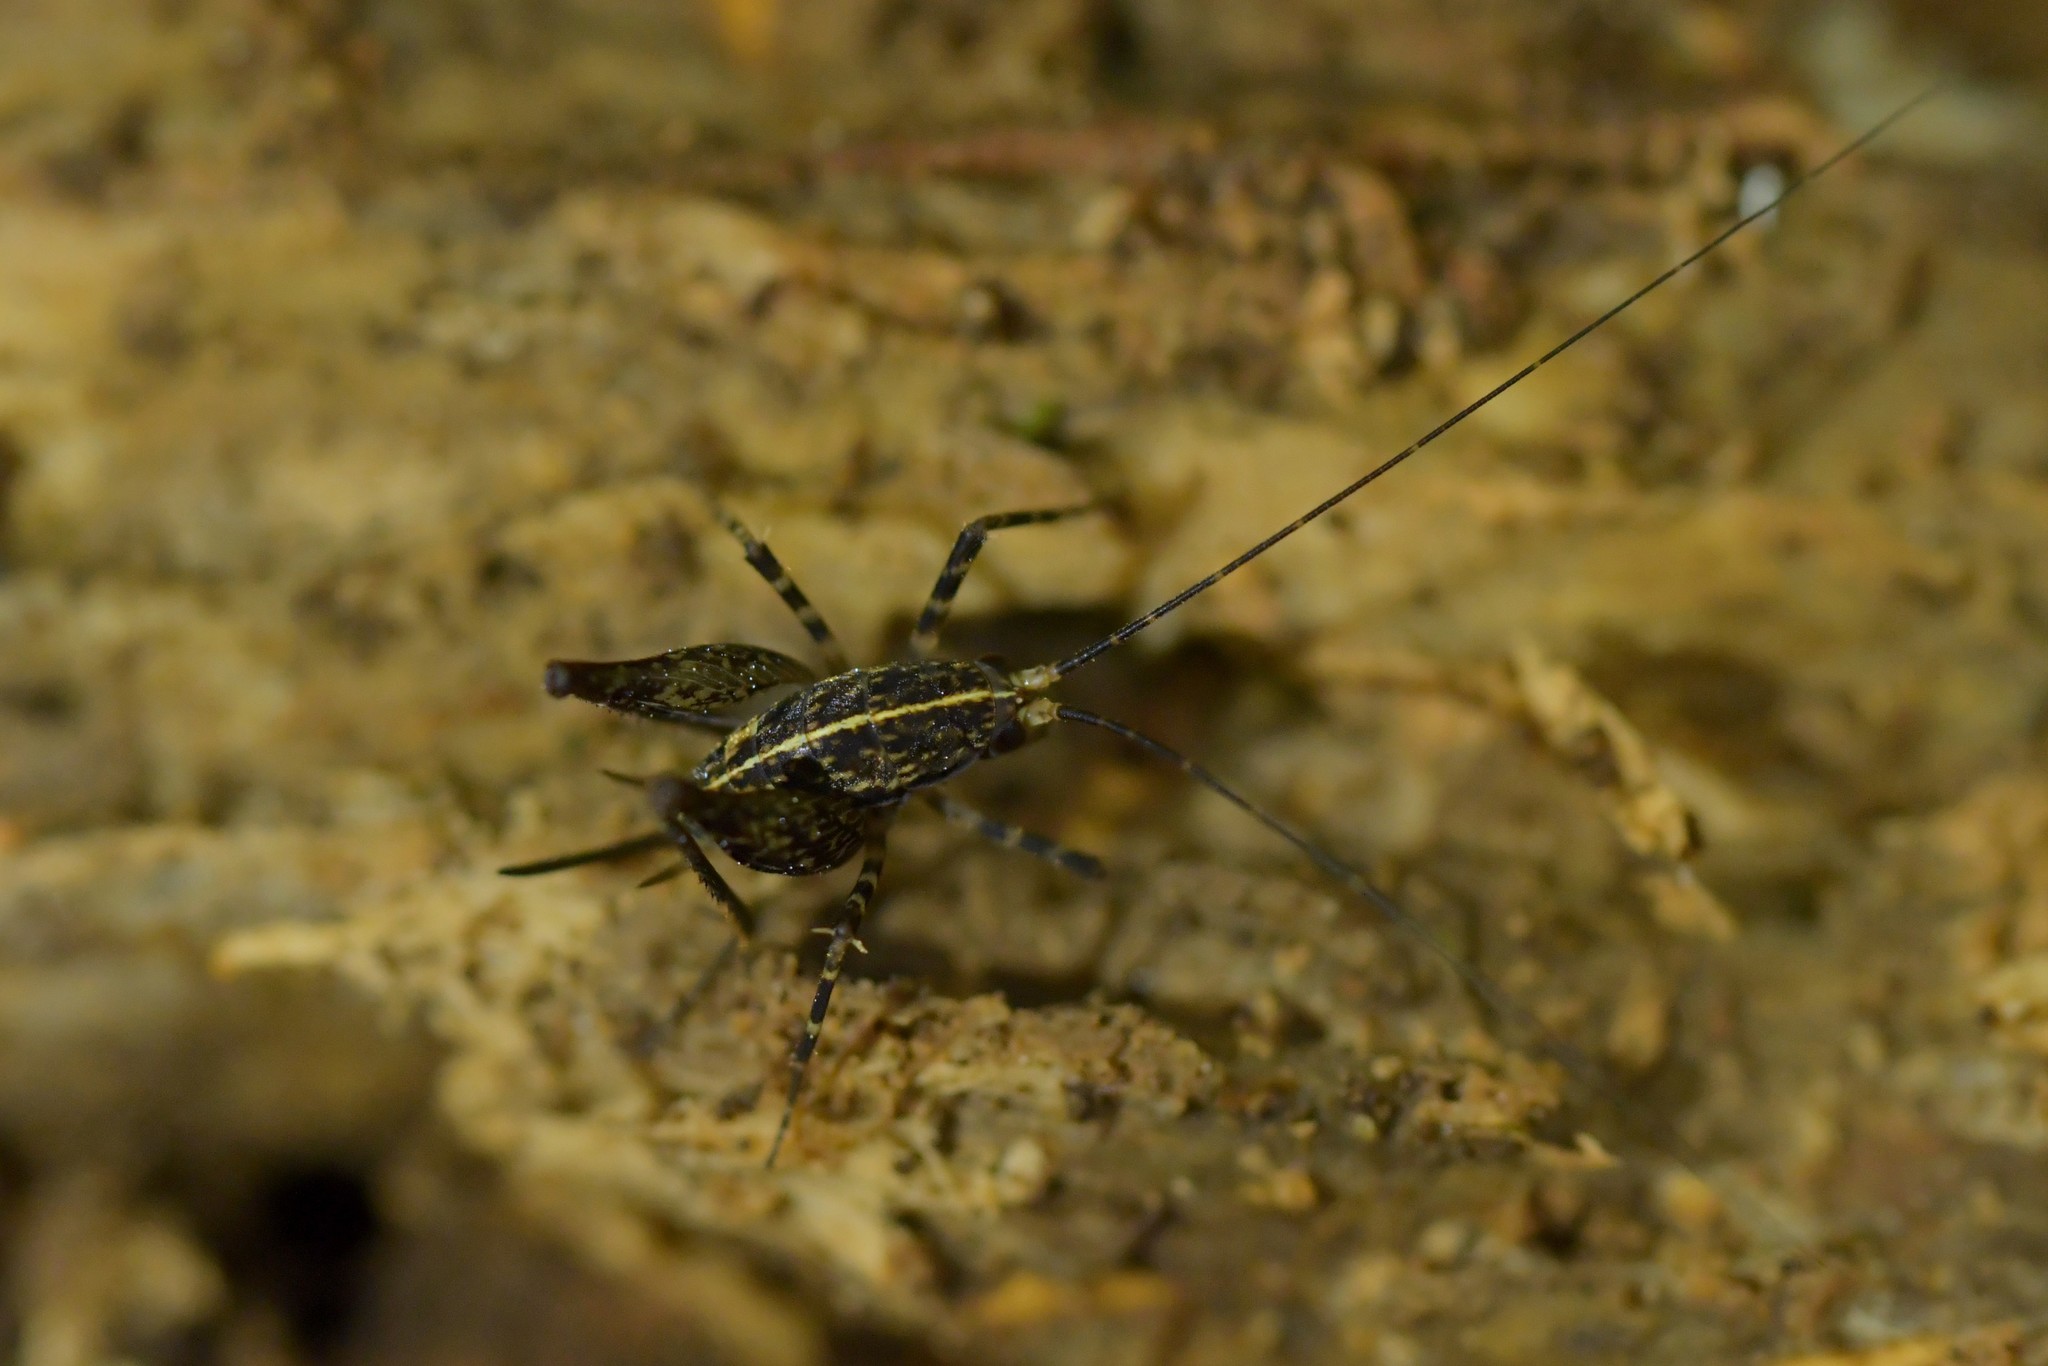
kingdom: Animalia
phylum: Arthropoda
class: Insecta
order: Orthoptera
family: Rhaphidophoridae
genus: Pleioplectron
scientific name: Pleioplectron hudsoni
